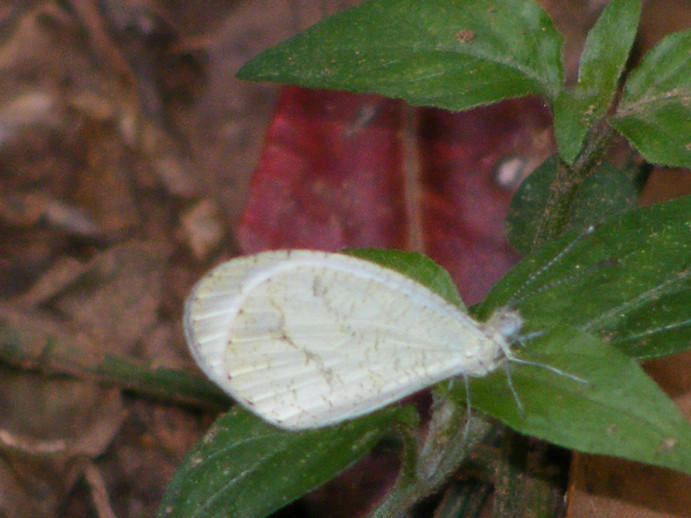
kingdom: Animalia
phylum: Arthropoda
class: Insecta
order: Lepidoptera
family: Pieridae
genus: Leptosia
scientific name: Leptosia alcesta
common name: African wood white
